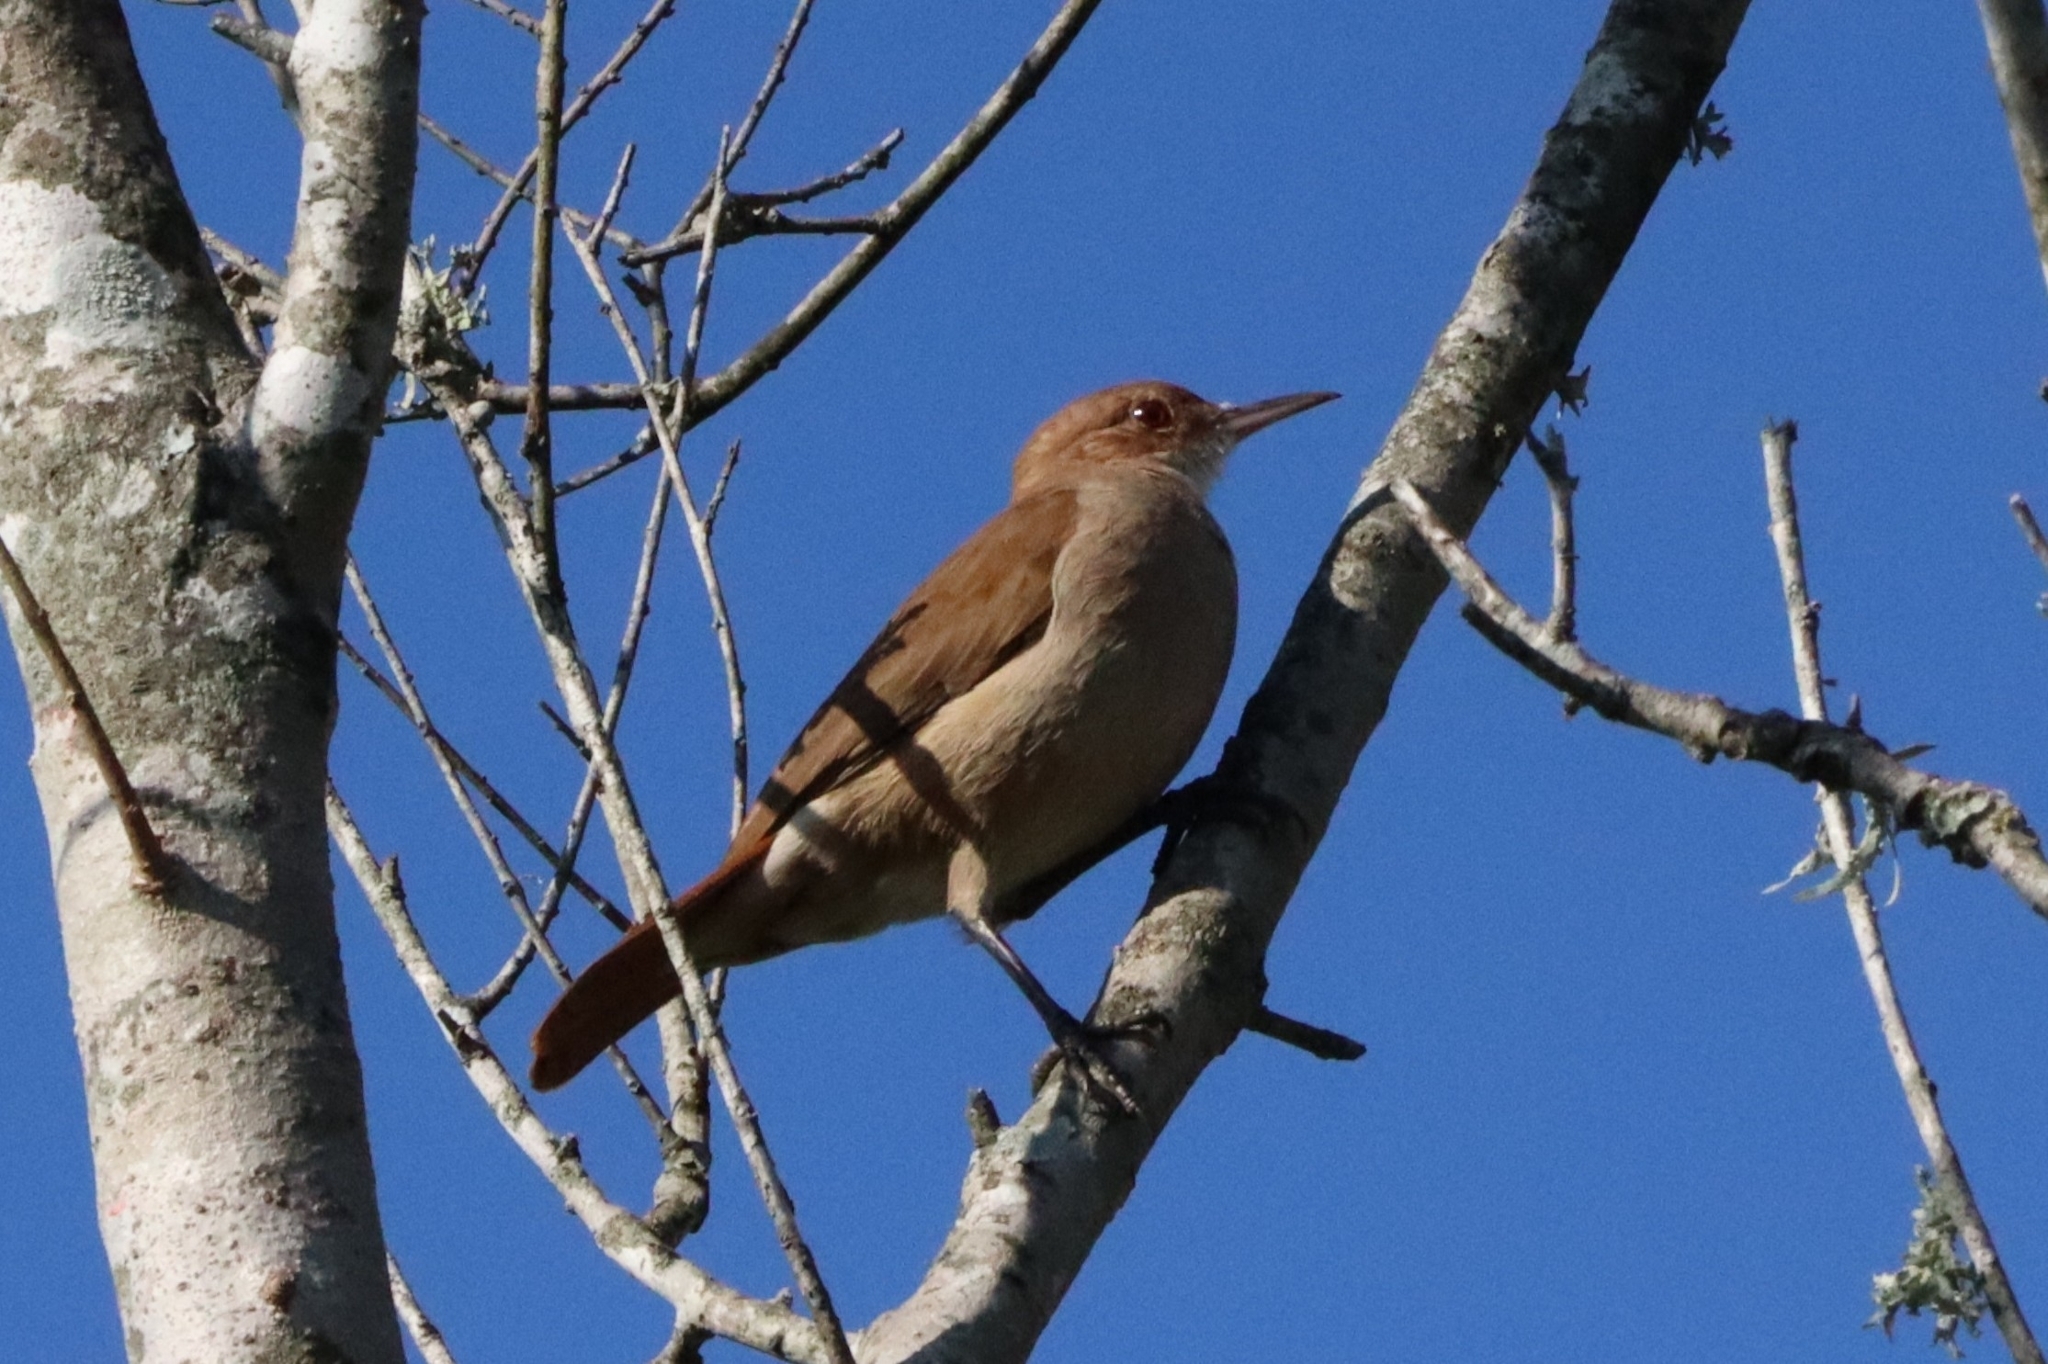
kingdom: Animalia
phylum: Chordata
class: Aves
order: Passeriformes
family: Furnariidae
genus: Furnarius
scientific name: Furnarius rufus
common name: Rufous hornero
